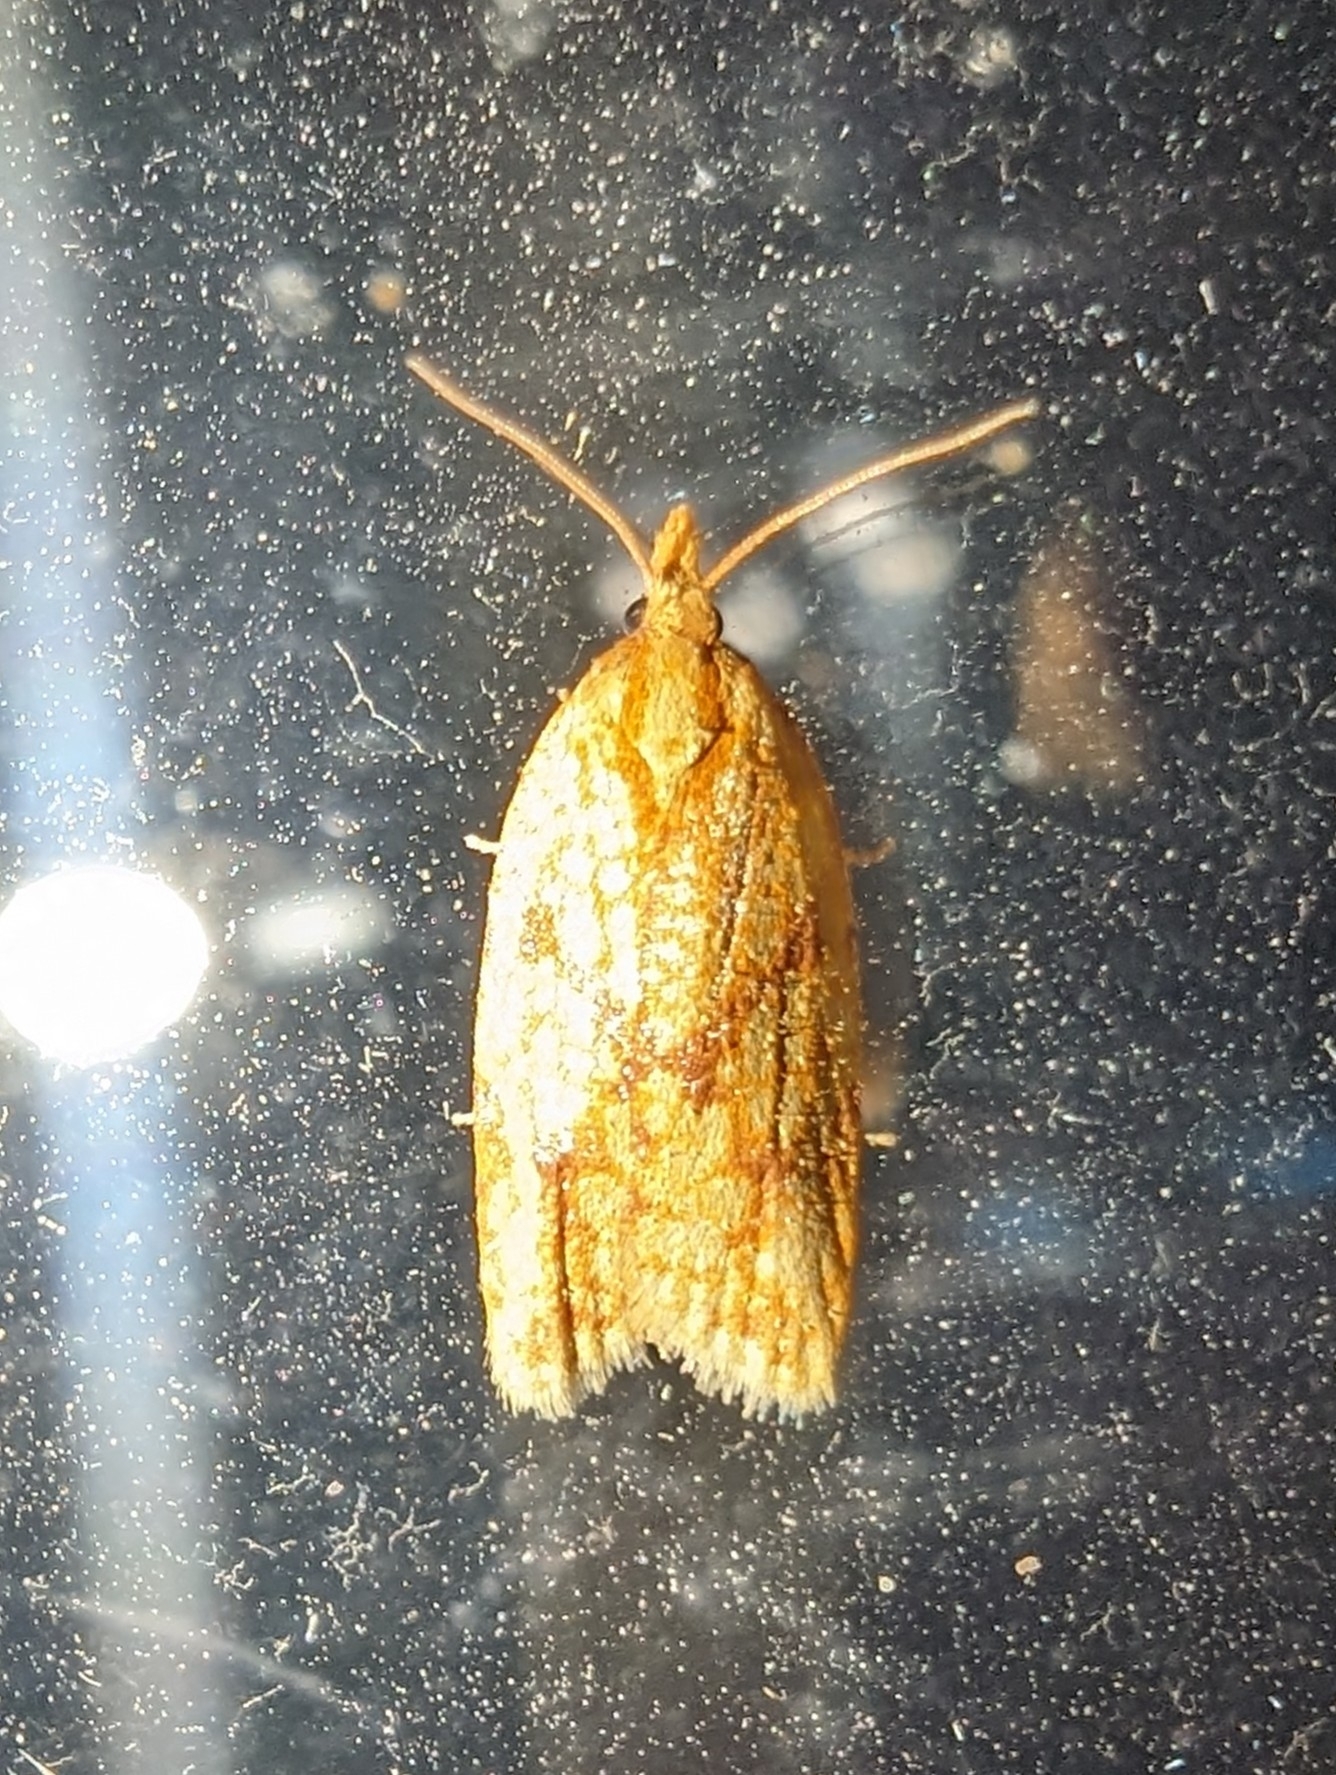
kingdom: Animalia
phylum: Arthropoda
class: Insecta
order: Lepidoptera
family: Tortricidae
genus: Sparganothis
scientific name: Sparganothis sulfureana
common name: Sparganothis fruitworm moth
